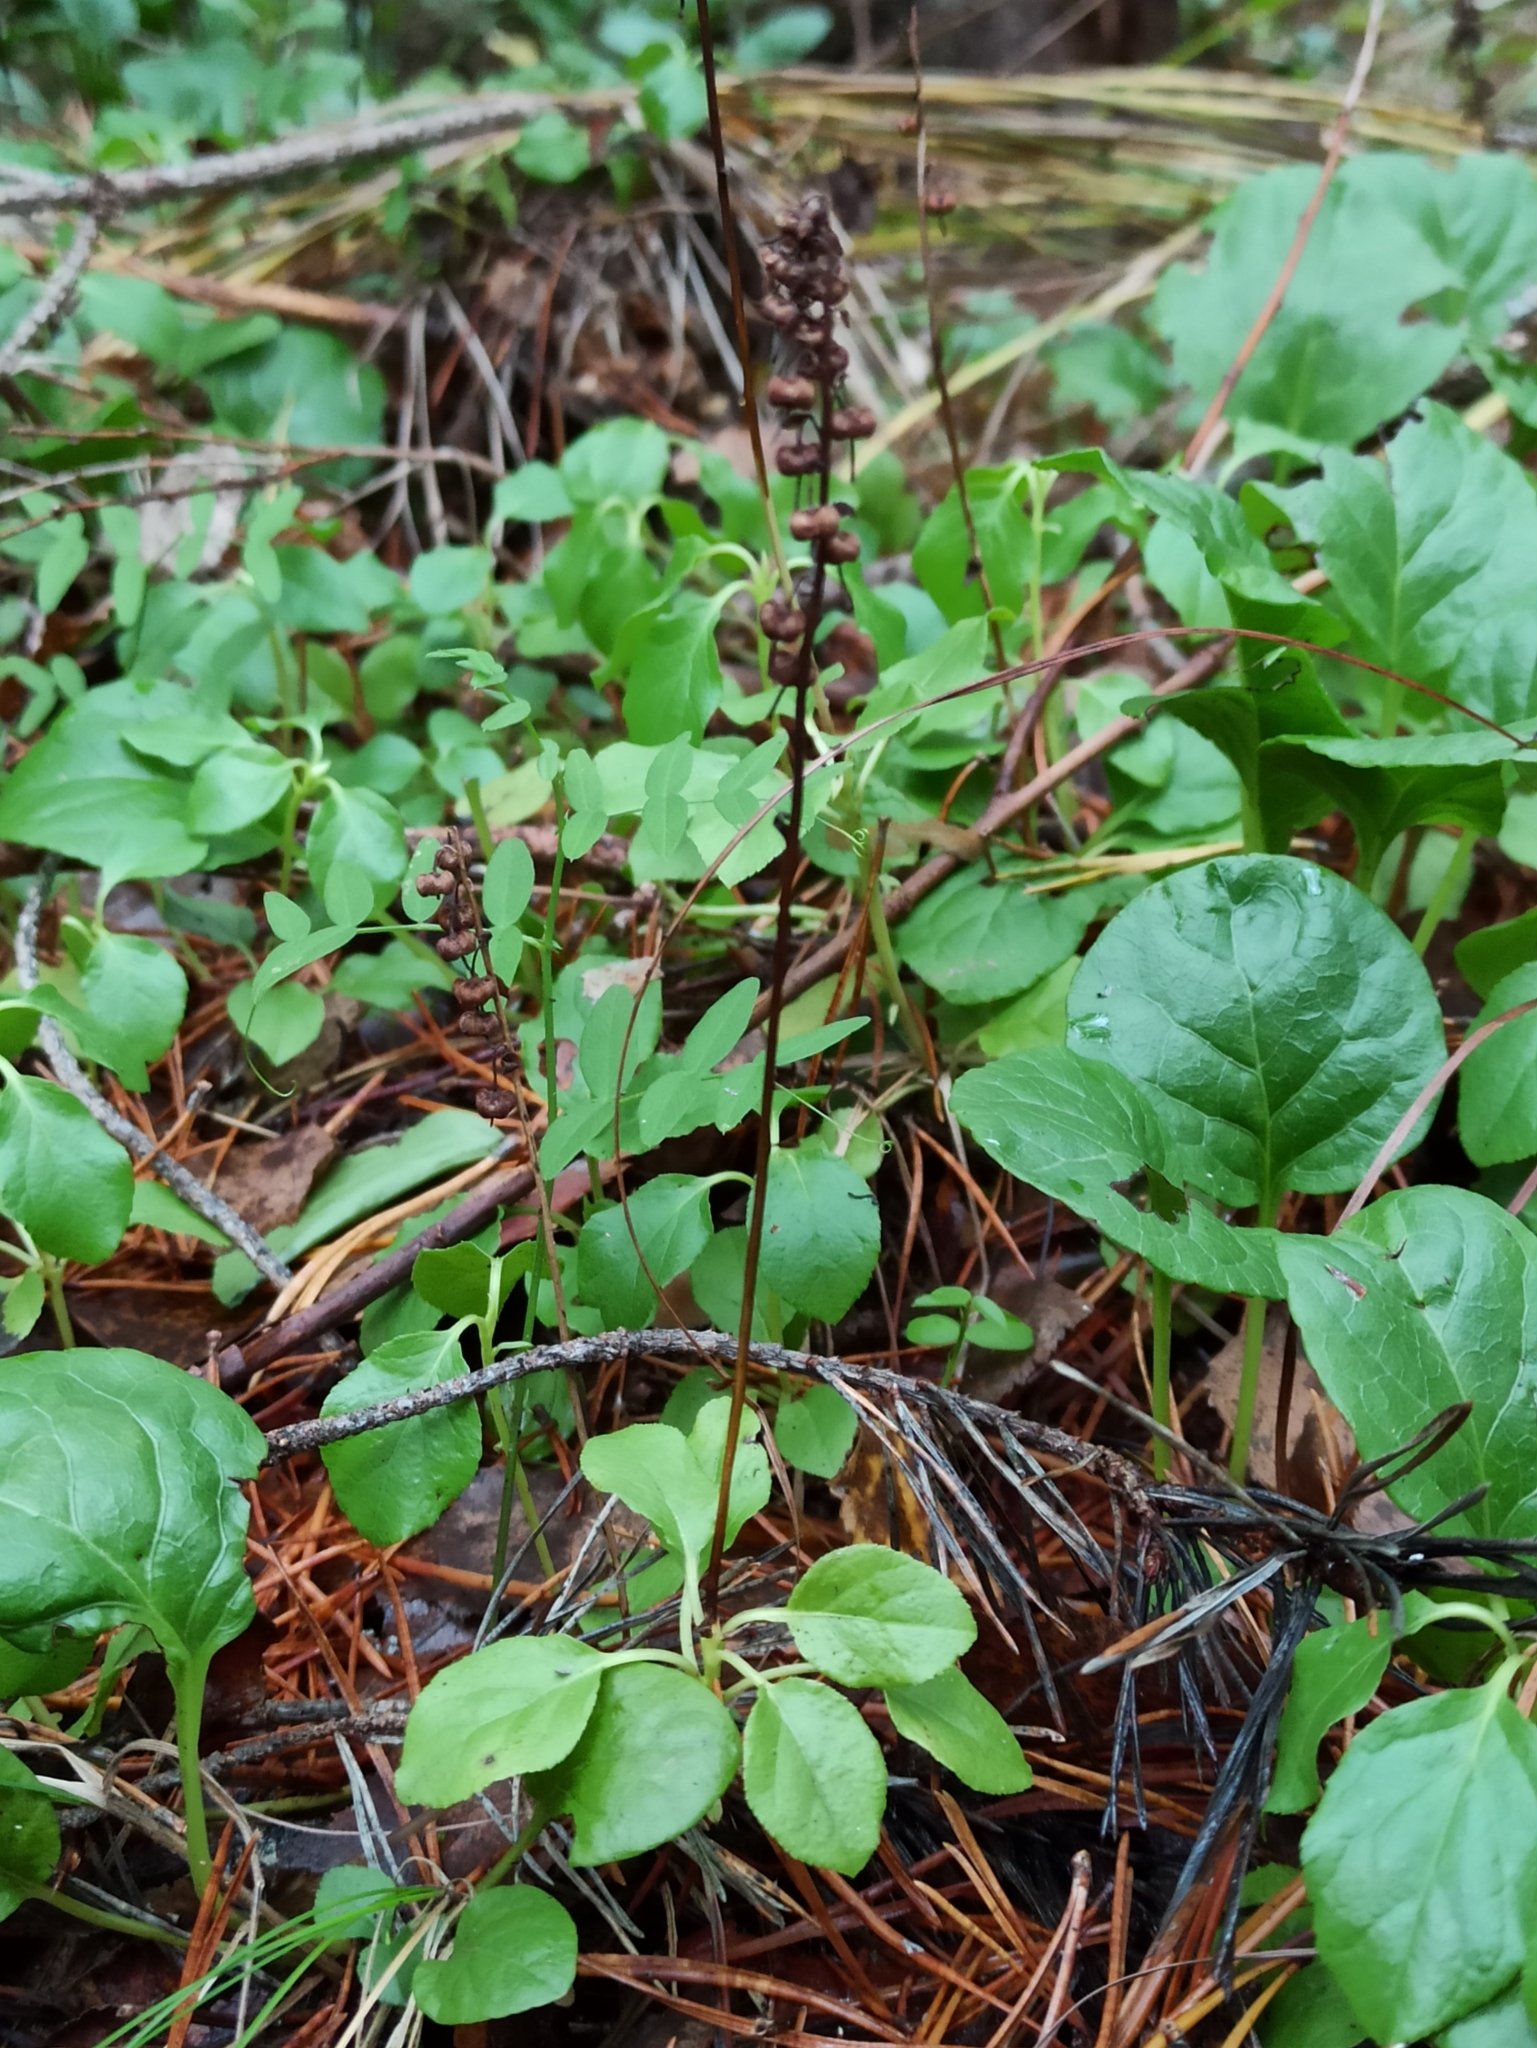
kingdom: Plantae
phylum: Tracheophyta
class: Magnoliopsida
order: Ericales
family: Ericaceae
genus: Orthilia
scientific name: Orthilia secunda
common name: One-sided orthilia
